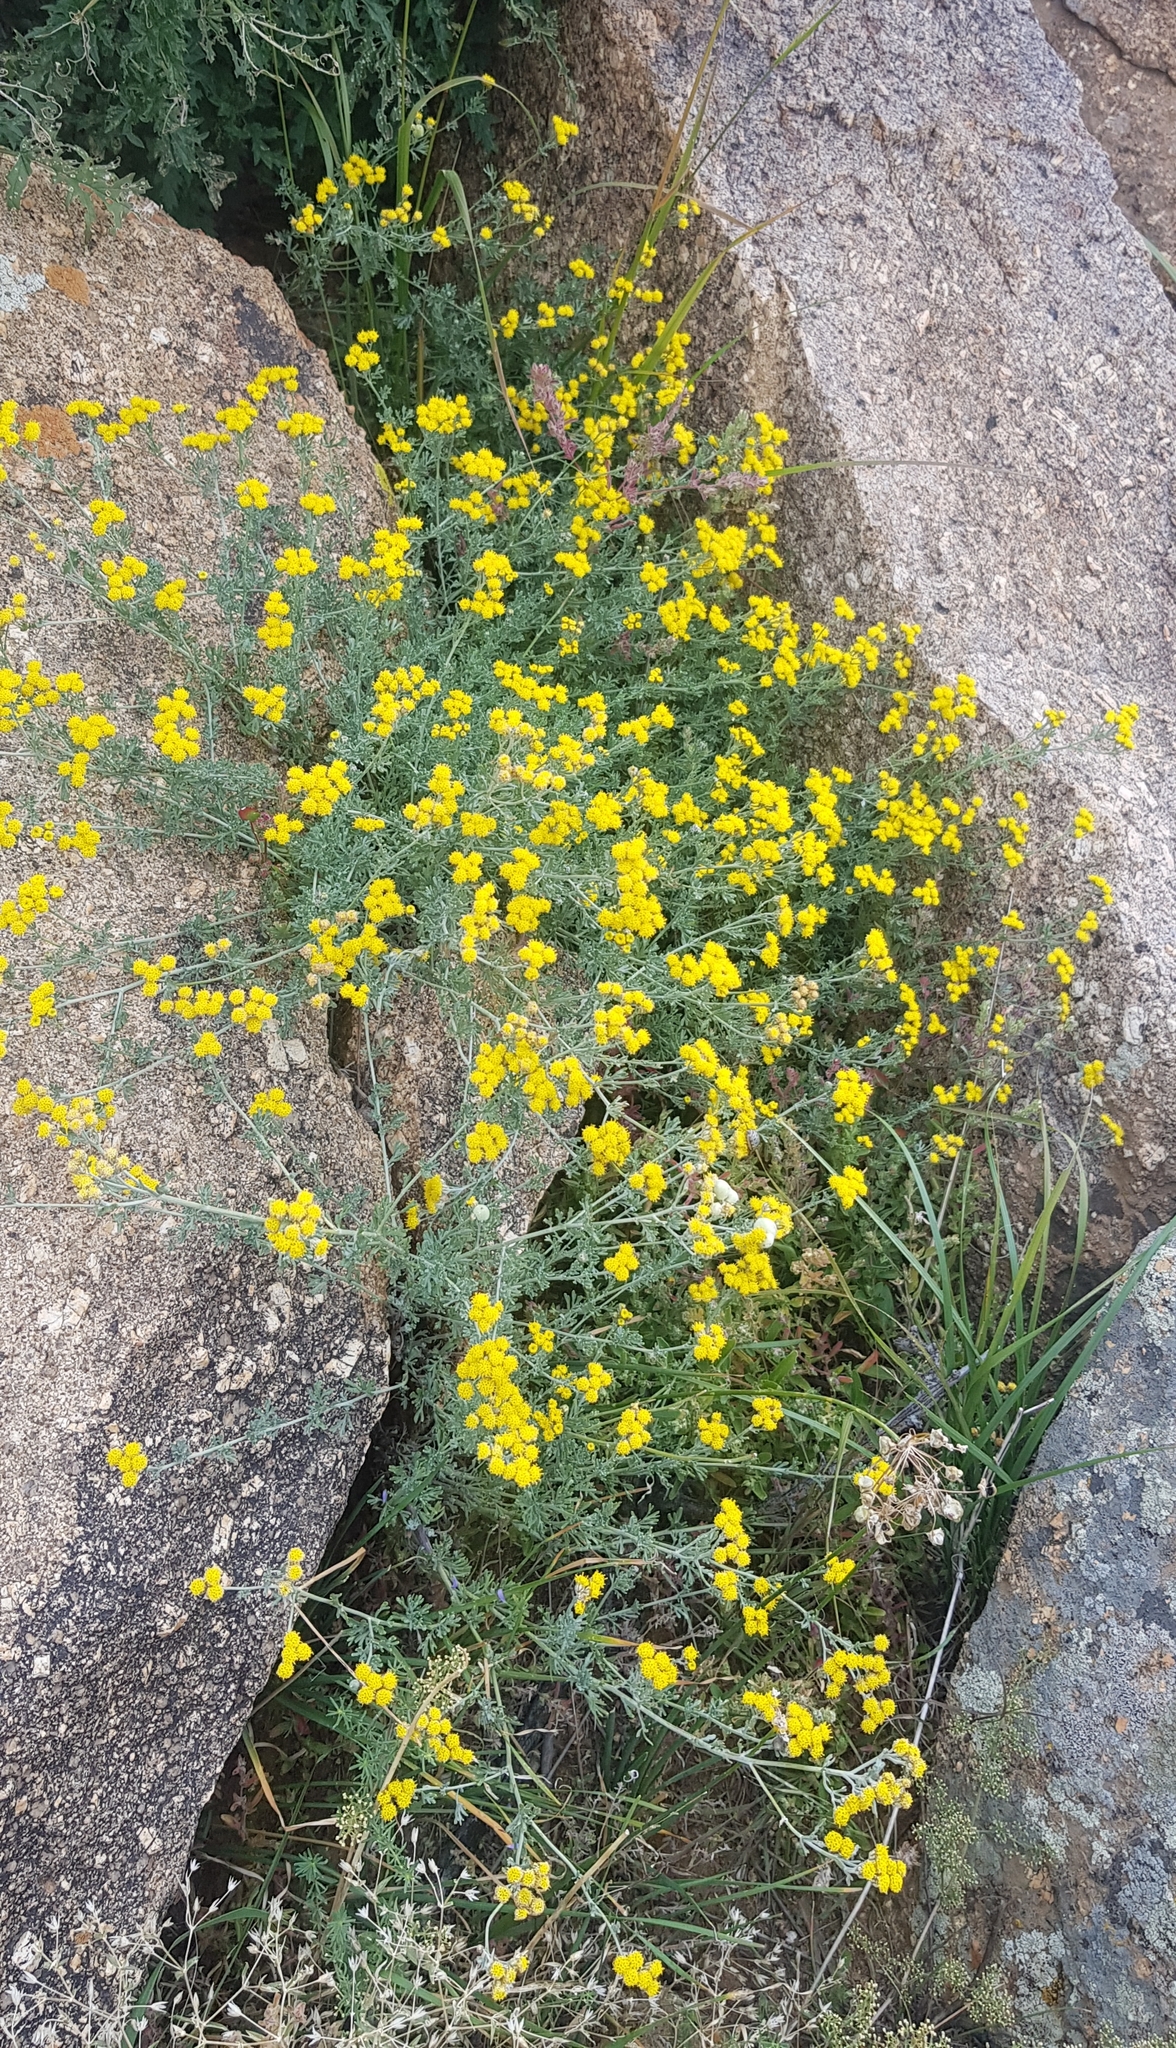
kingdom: Plantae
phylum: Tracheophyta
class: Magnoliopsida
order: Asterales
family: Asteraceae
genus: Ajania
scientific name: Ajania achilleoides
